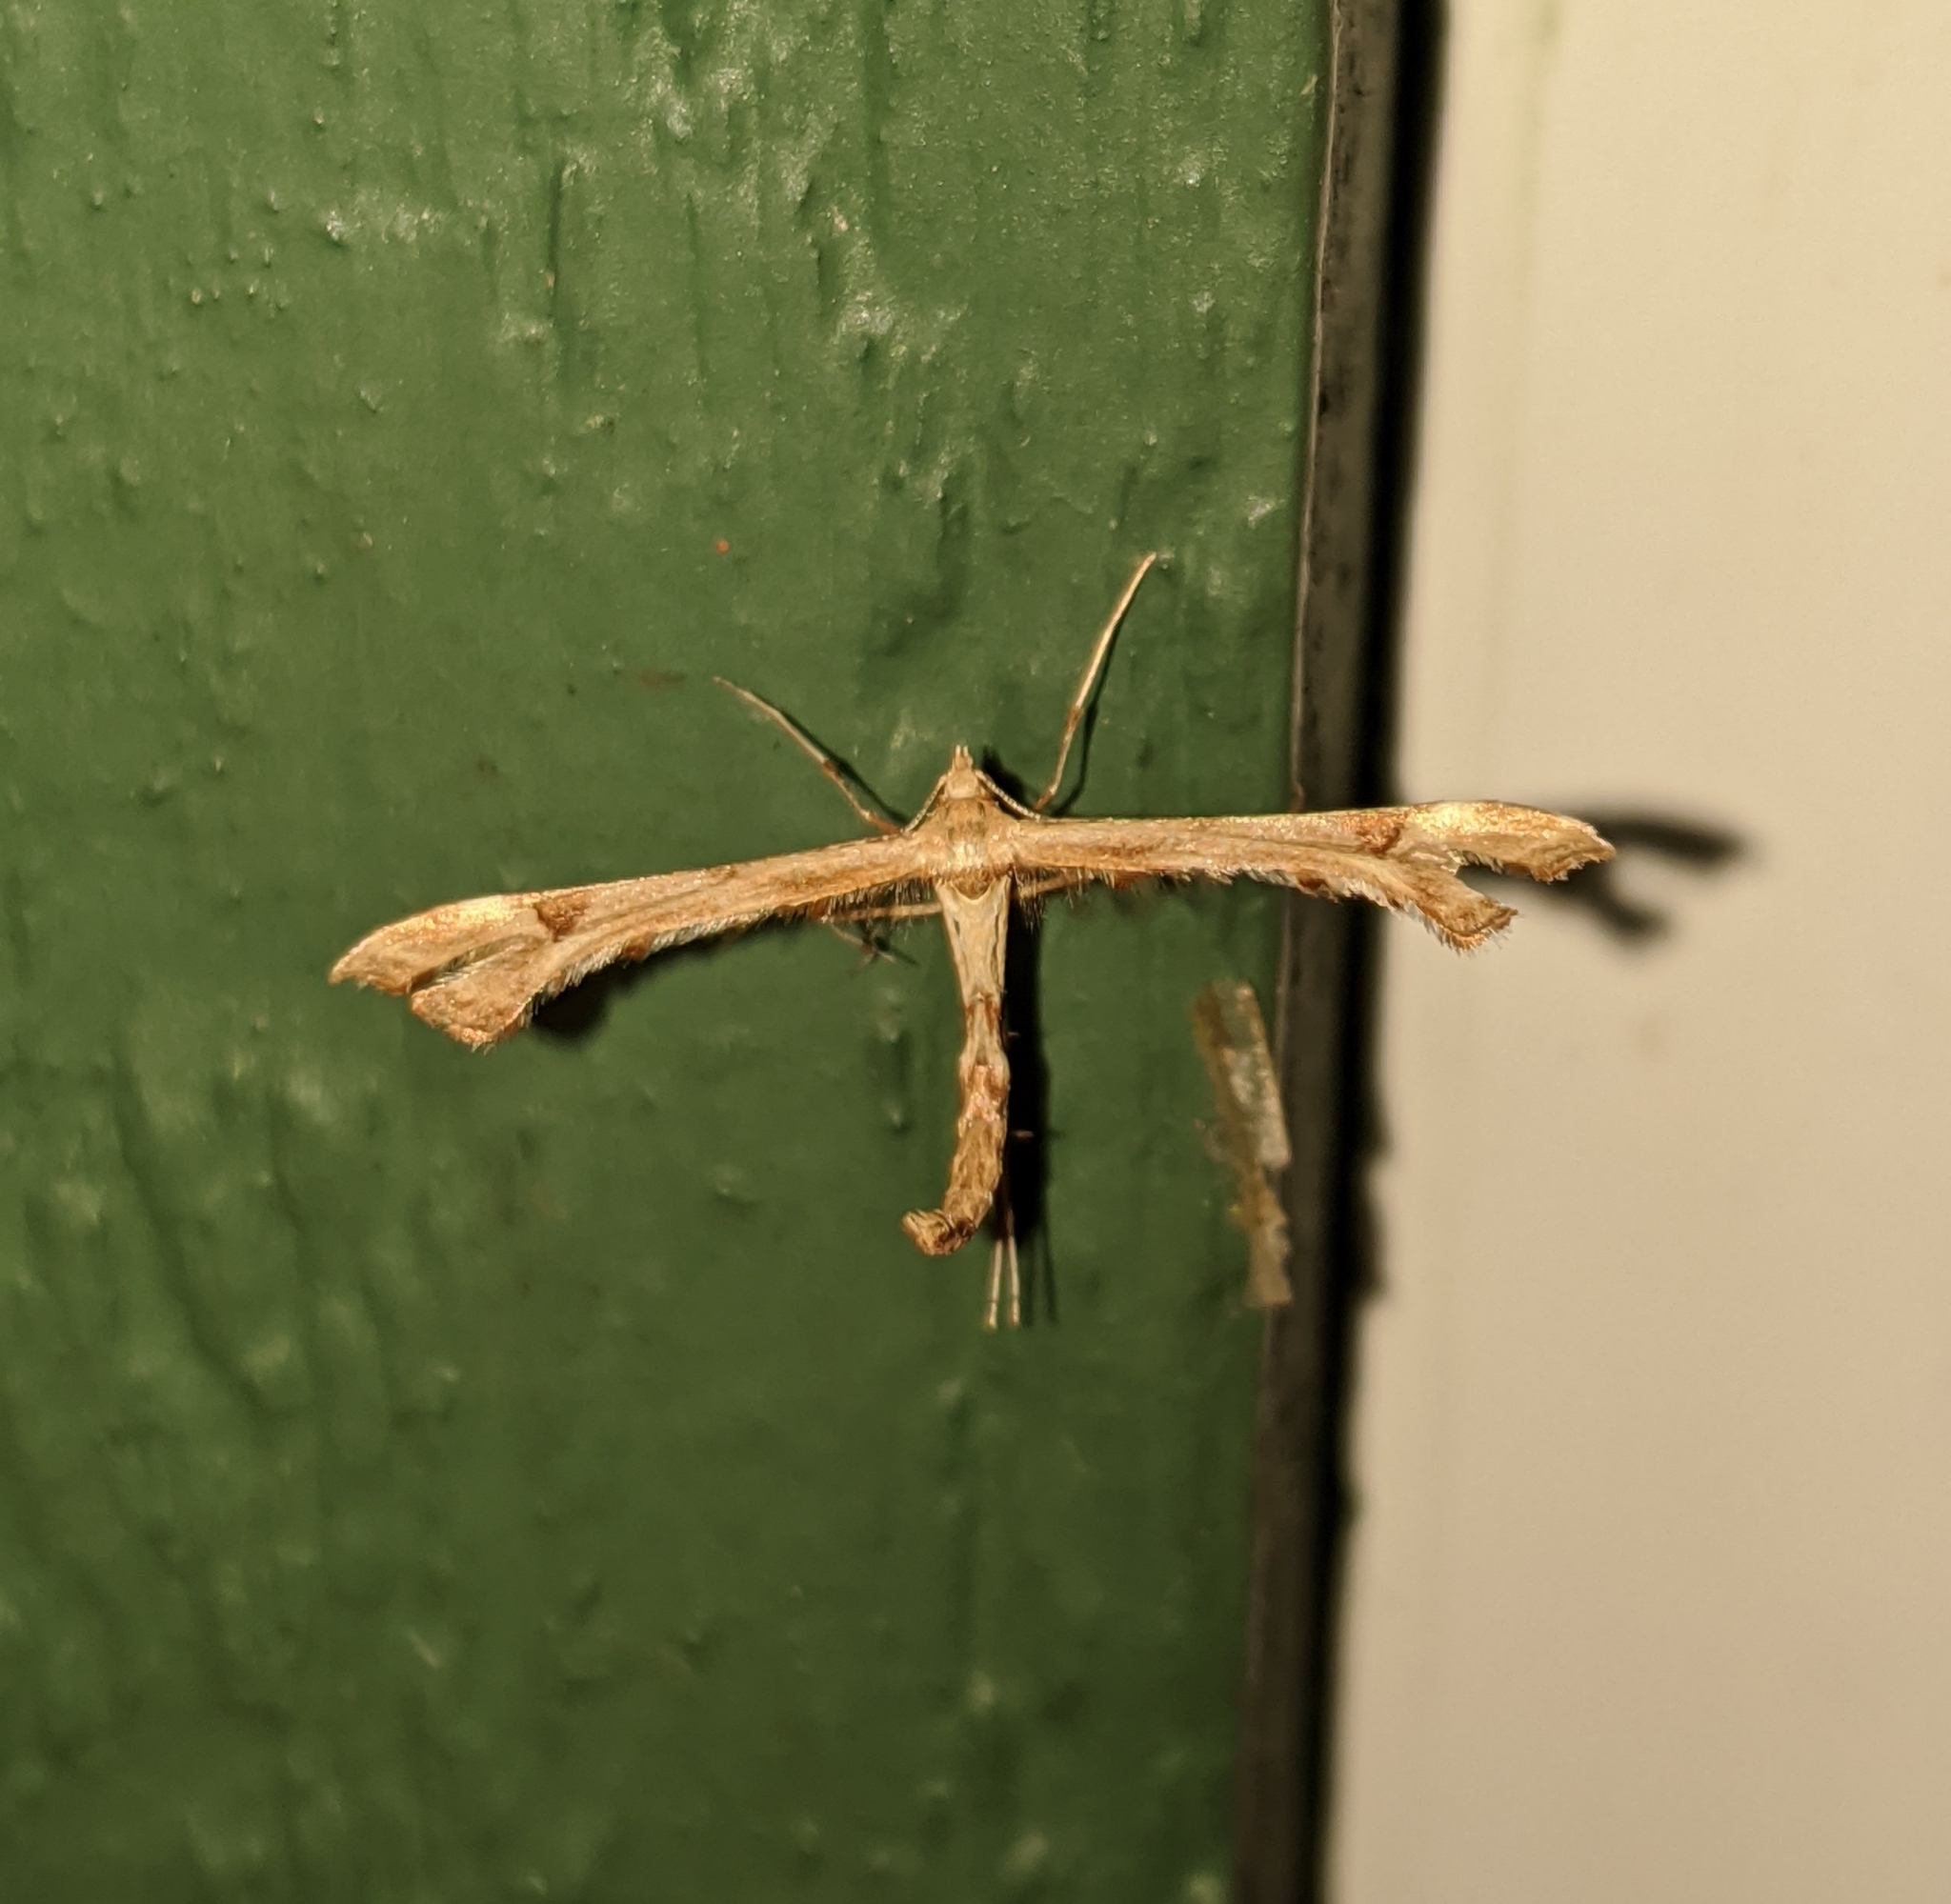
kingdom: Animalia
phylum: Arthropoda
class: Insecta
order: Lepidoptera
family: Pterophoridae
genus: Platyptilia
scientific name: Platyptilia carduidactylus
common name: Artichoke plume moth
